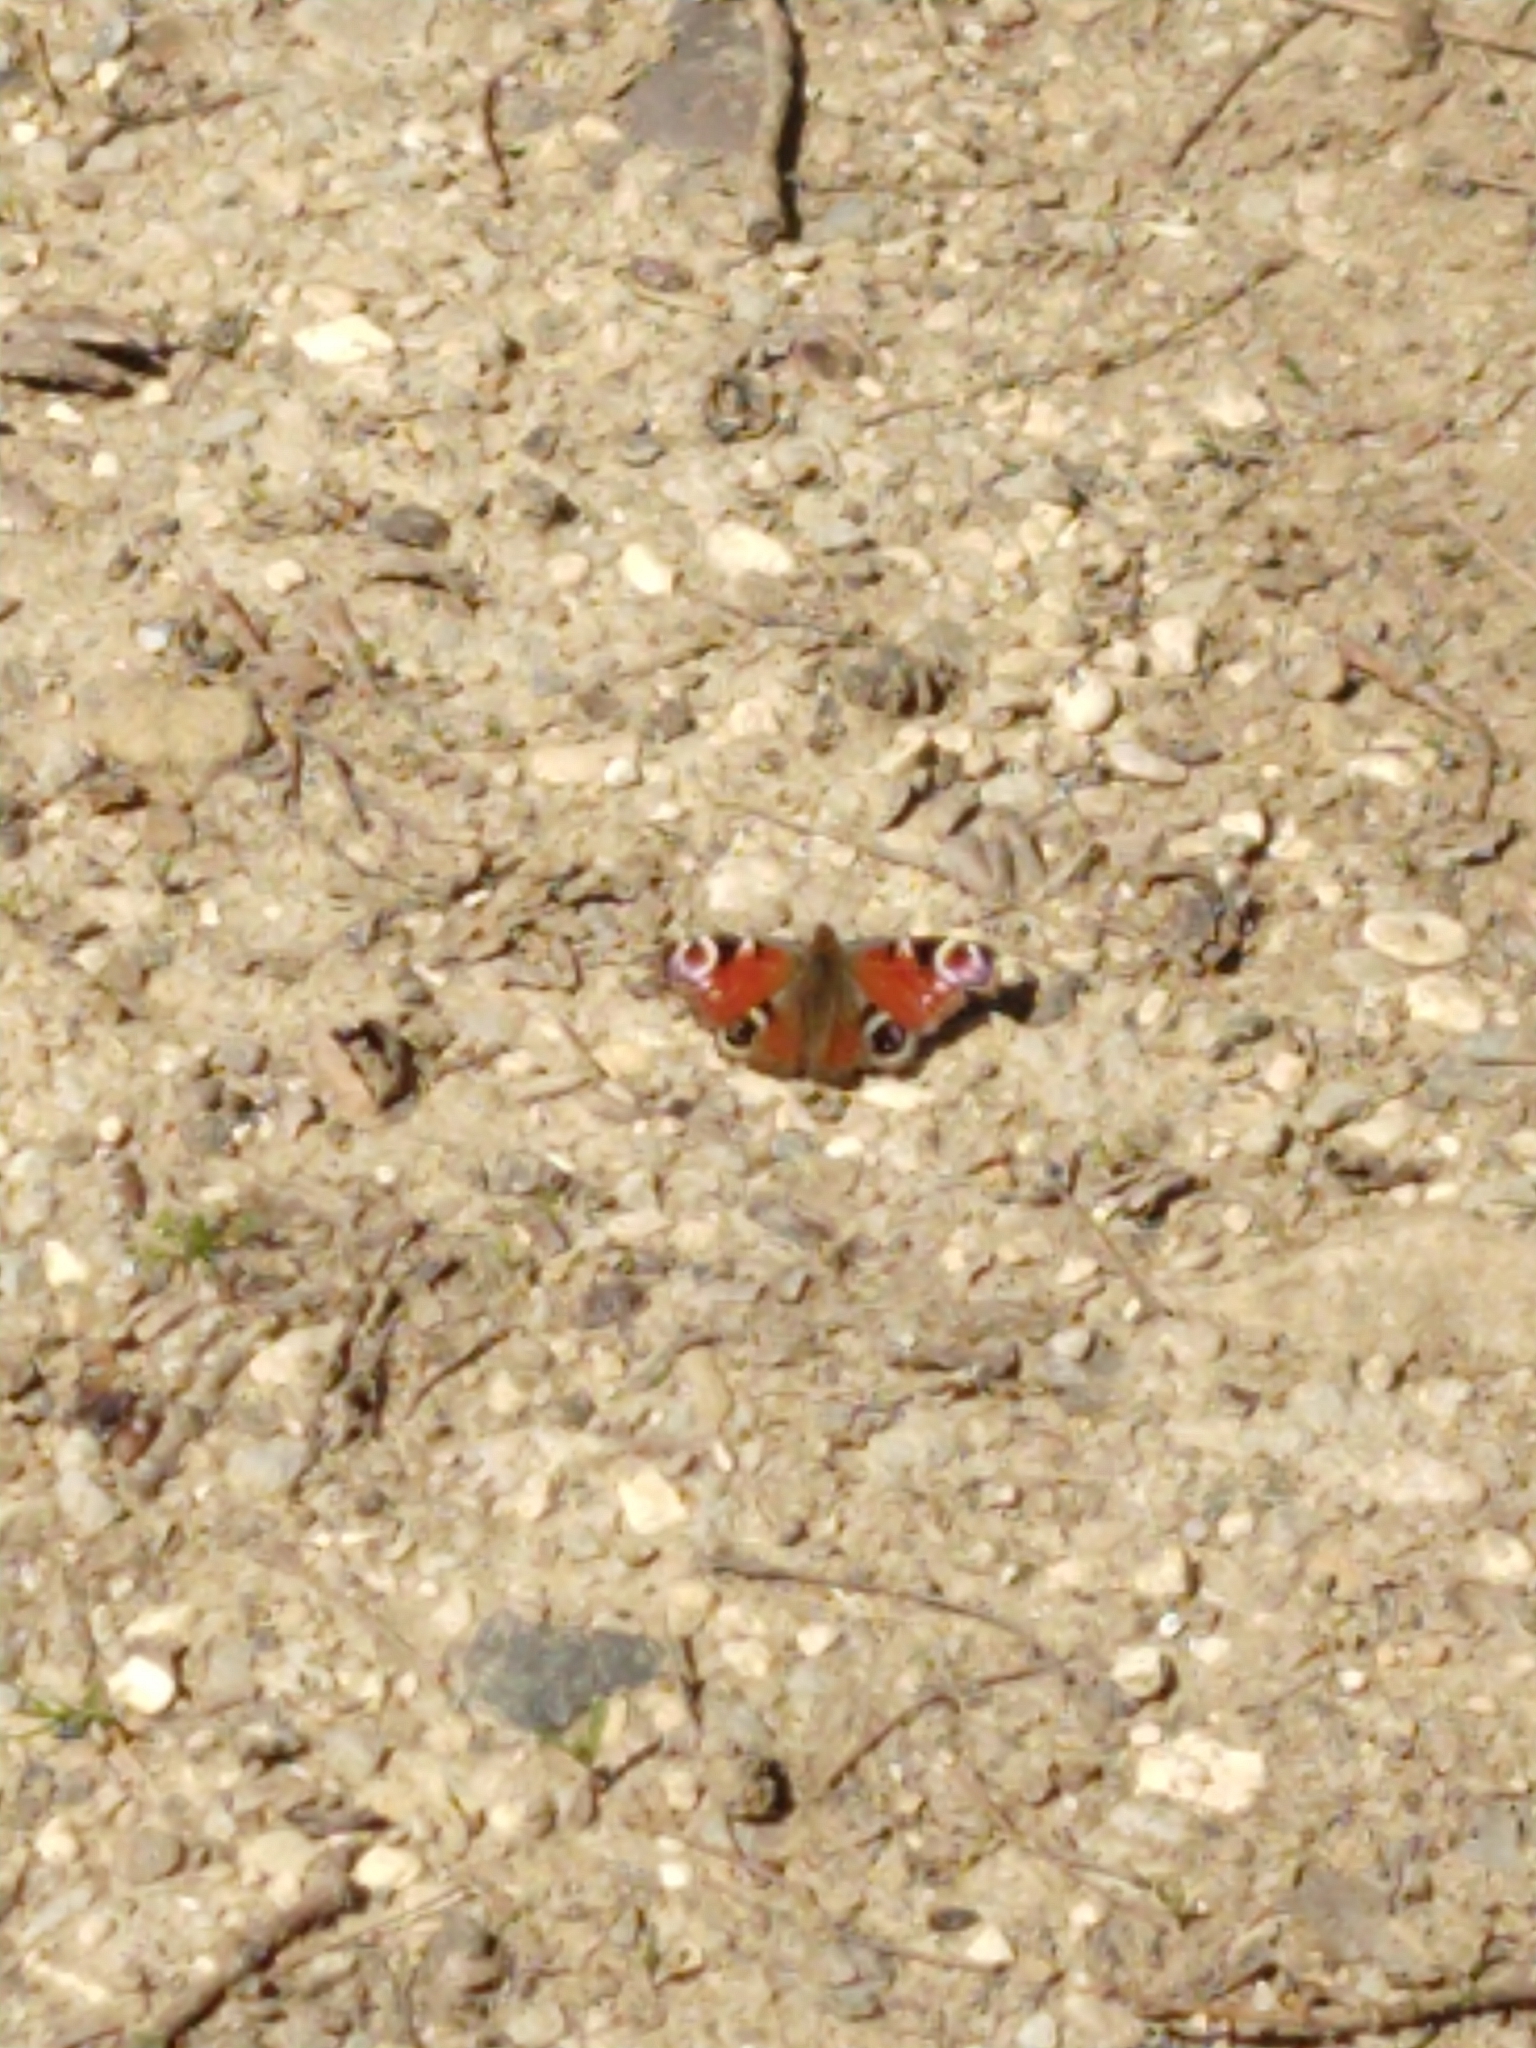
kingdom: Animalia
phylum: Arthropoda
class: Insecta
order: Lepidoptera
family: Nymphalidae
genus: Aglais
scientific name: Aglais io
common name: Peacock
